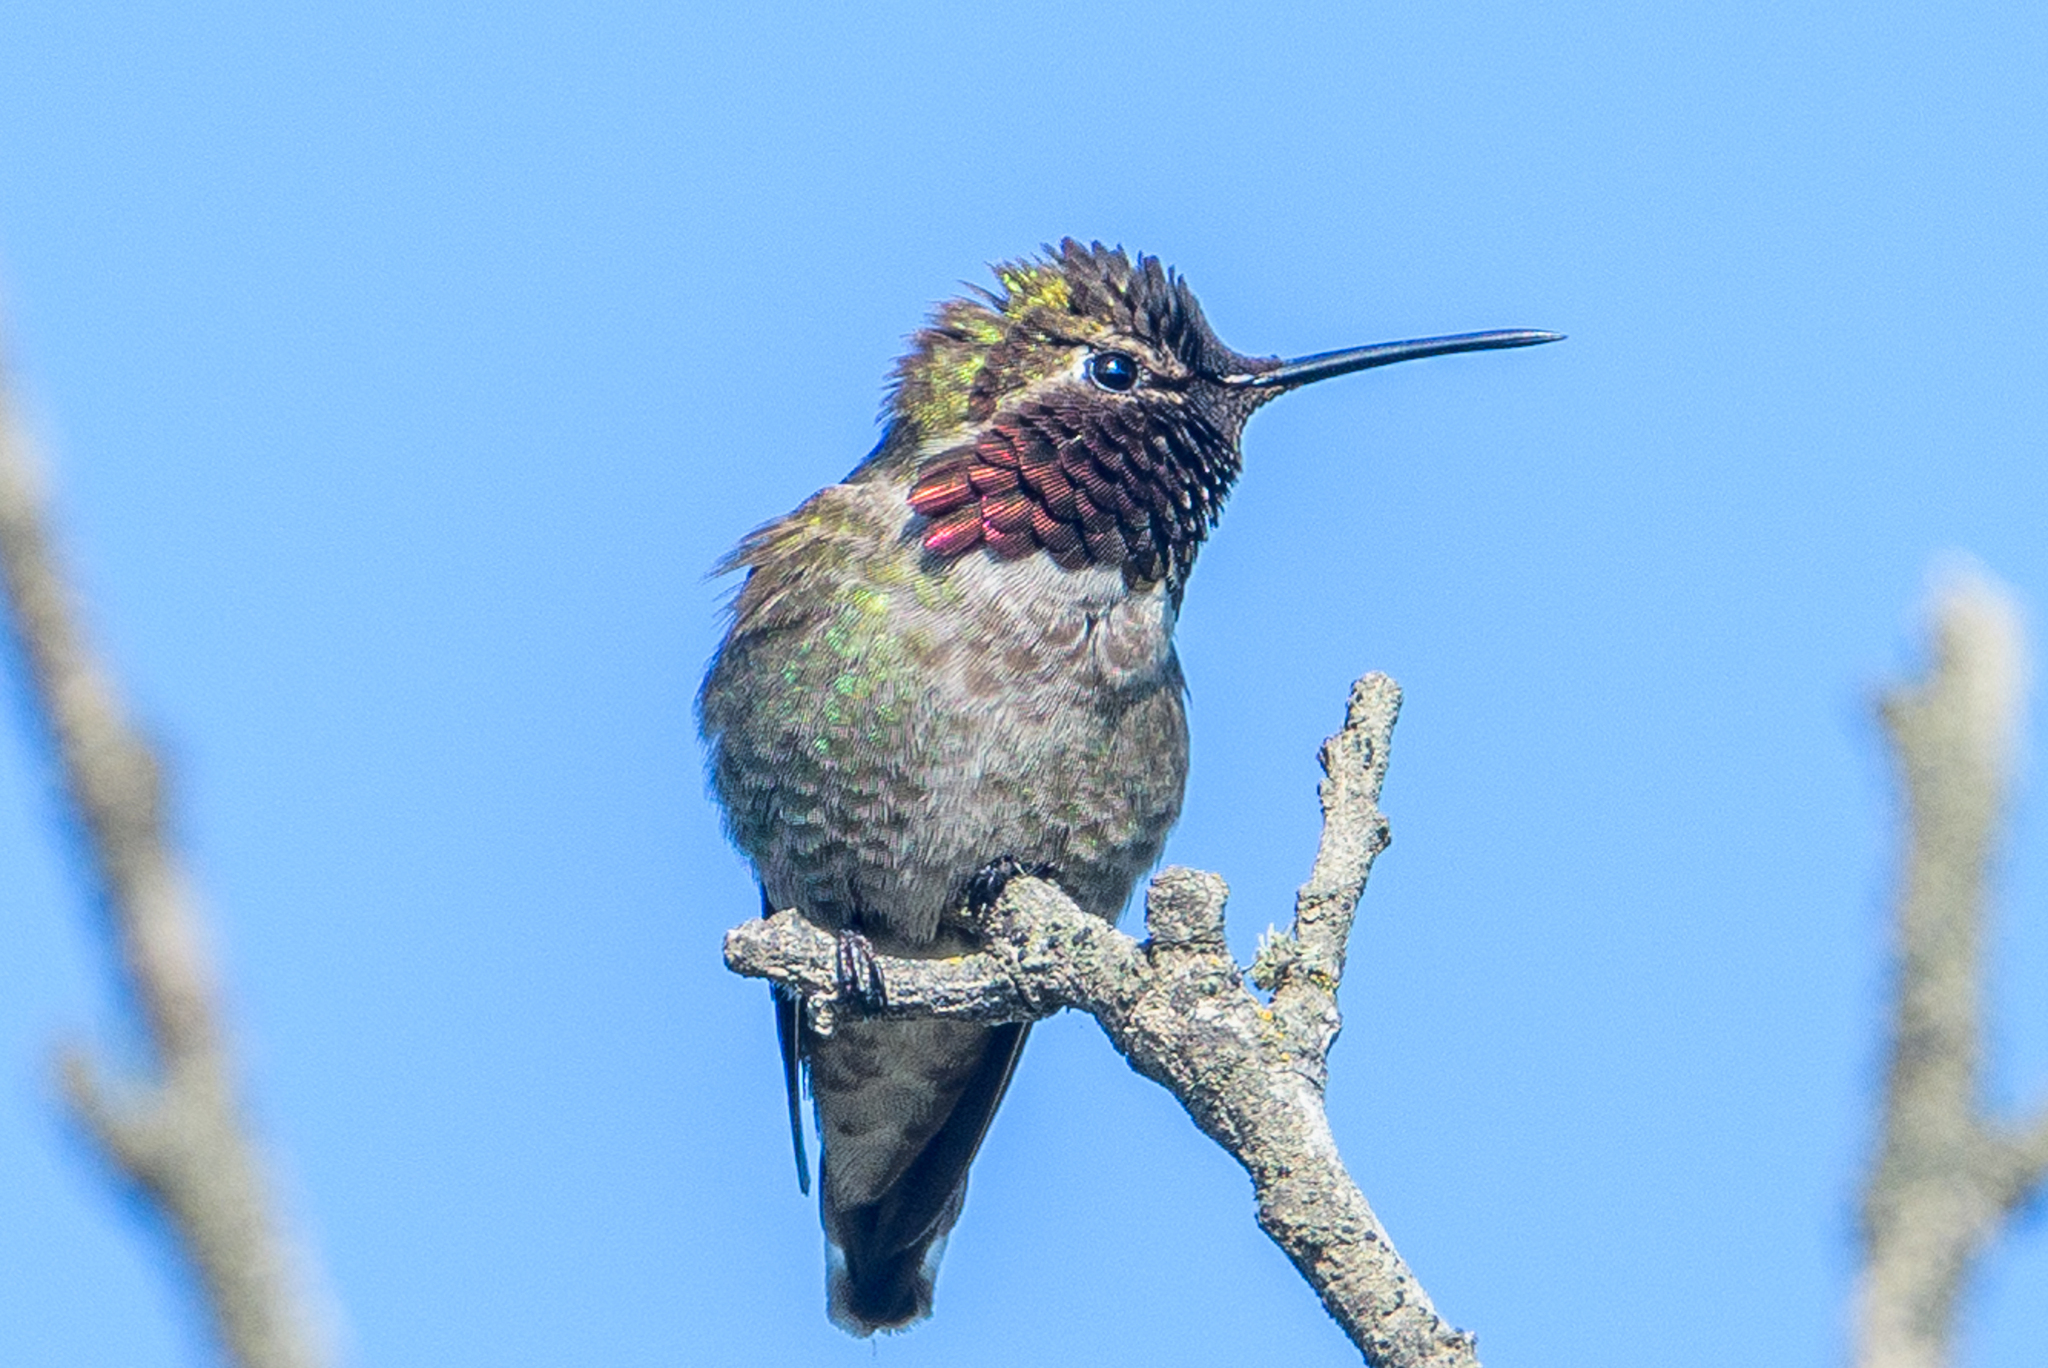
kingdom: Animalia
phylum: Chordata
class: Aves
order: Apodiformes
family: Trochilidae
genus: Calypte
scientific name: Calypte anna
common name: Anna's hummingbird
